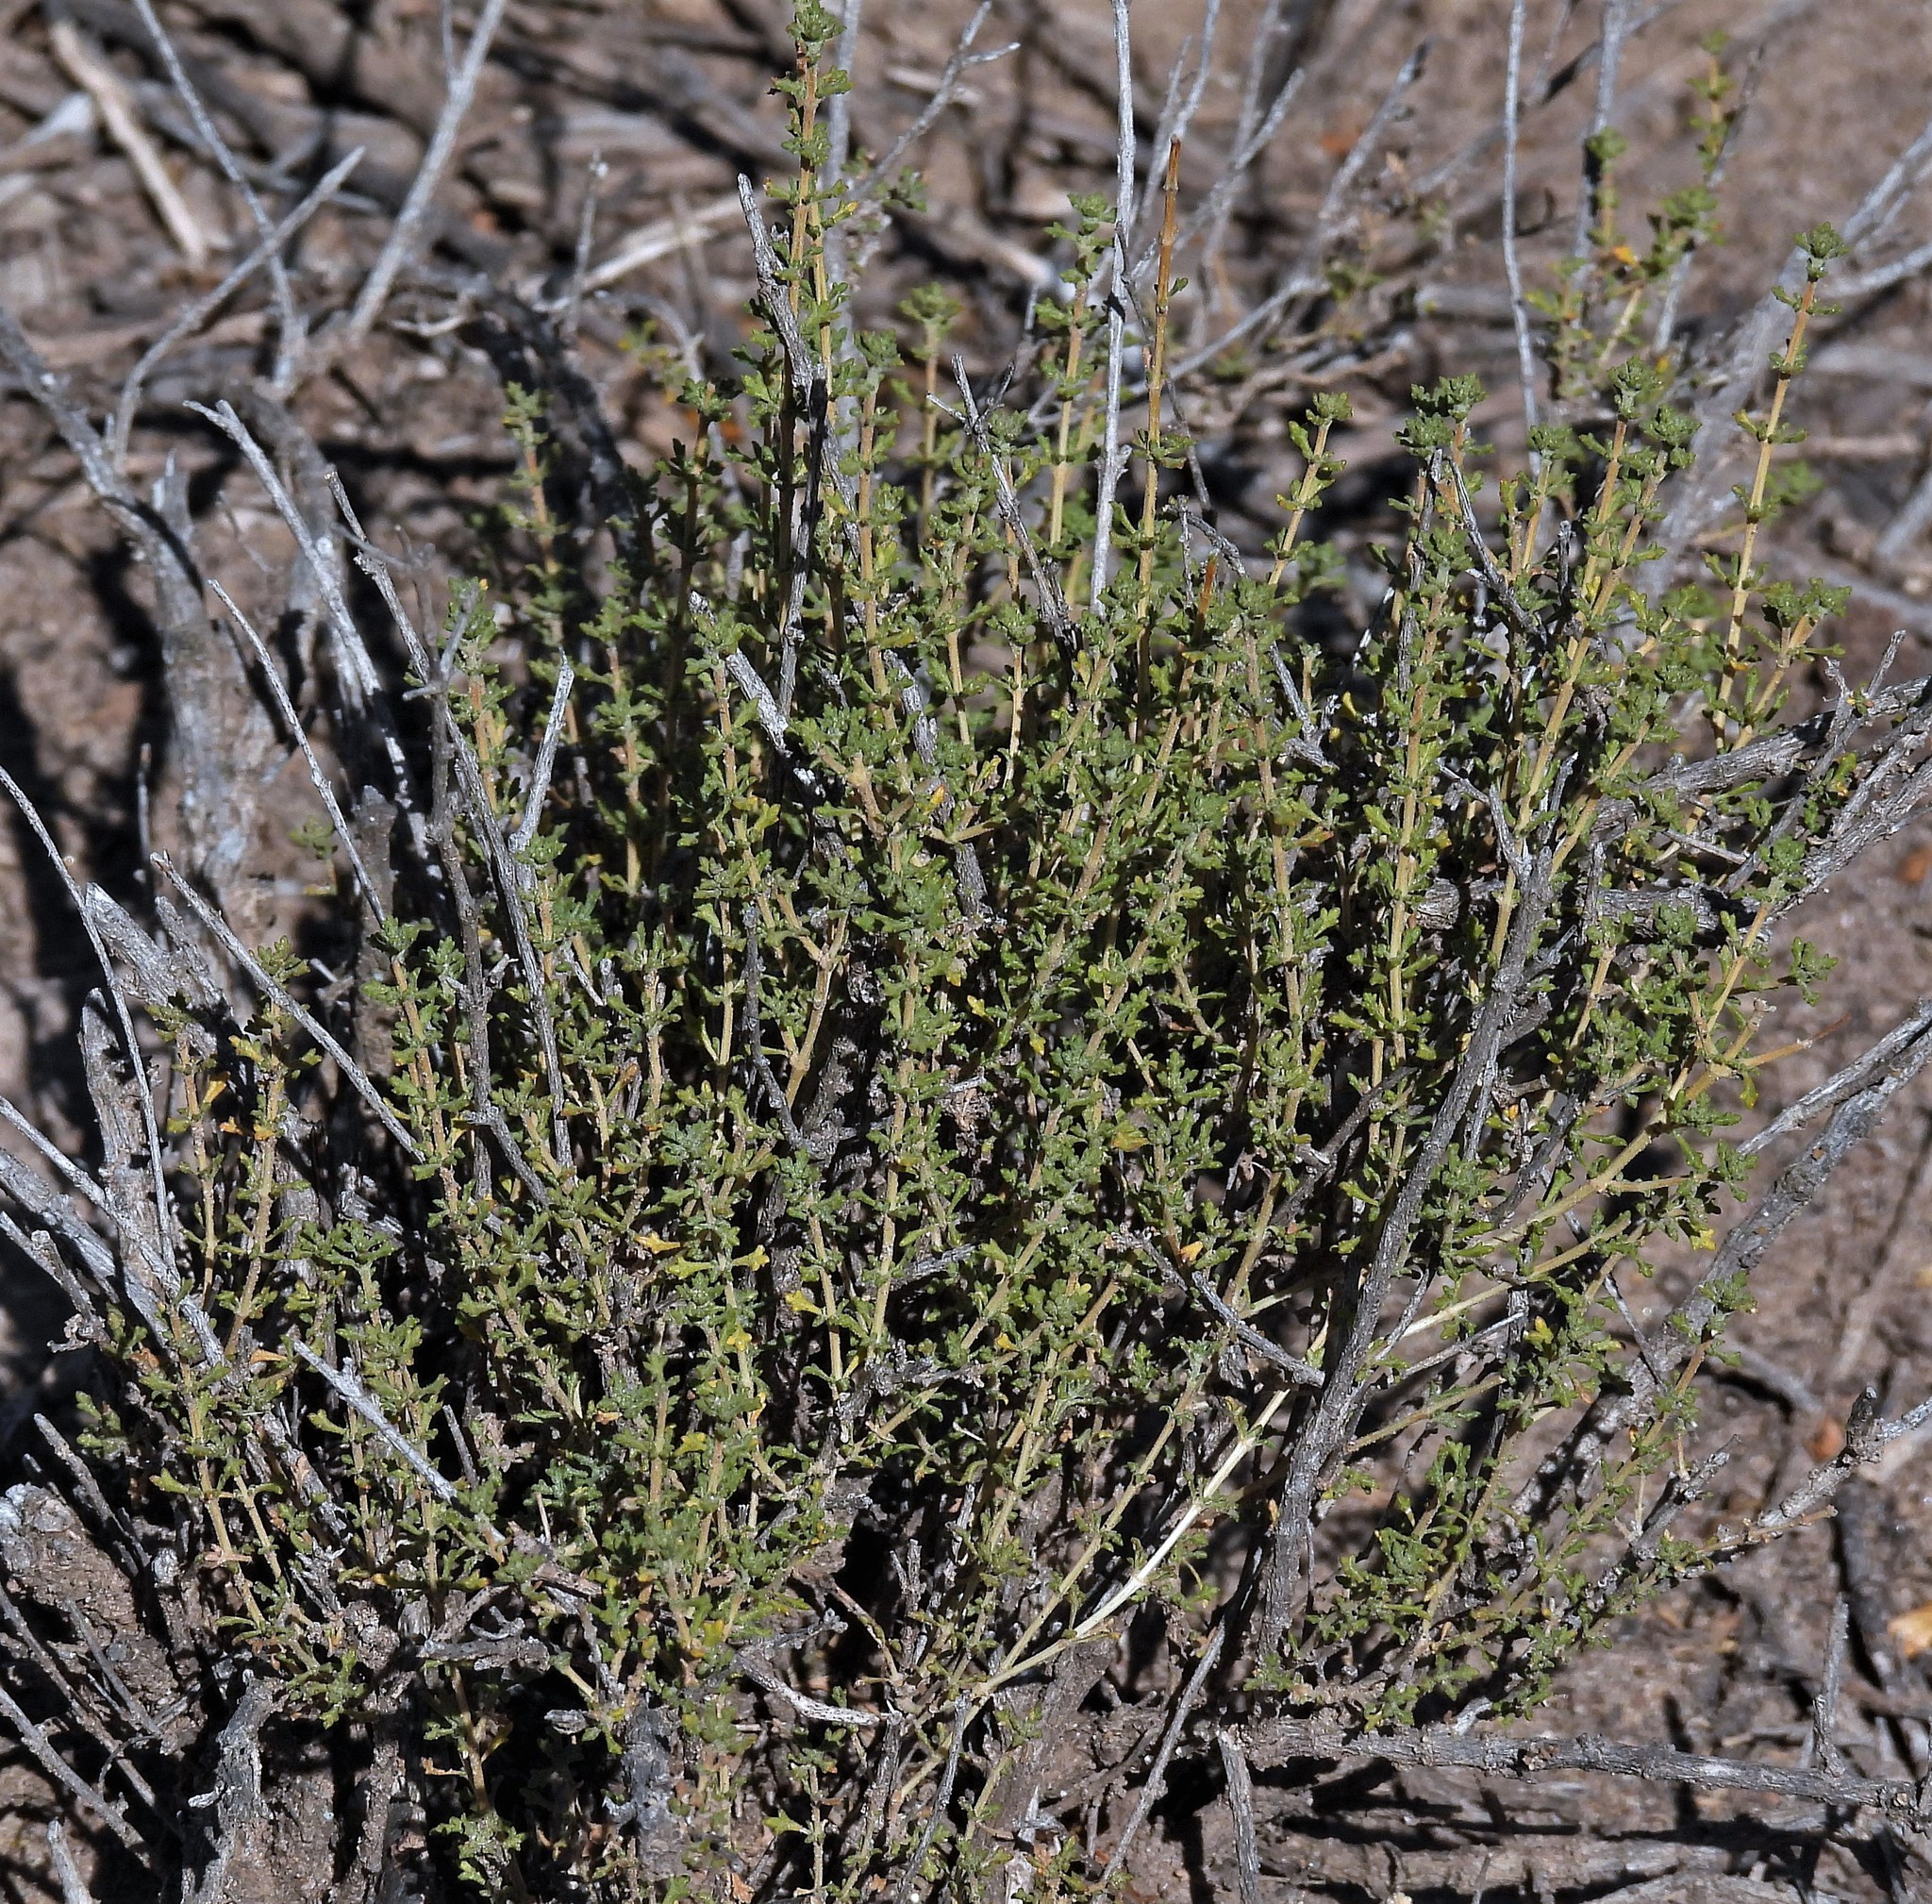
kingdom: Plantae
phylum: Tracheophyta
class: Magnoliopsida
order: Lamiales
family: Verbenaceae
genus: Acantholippia
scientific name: Acantholippia seriphioides
